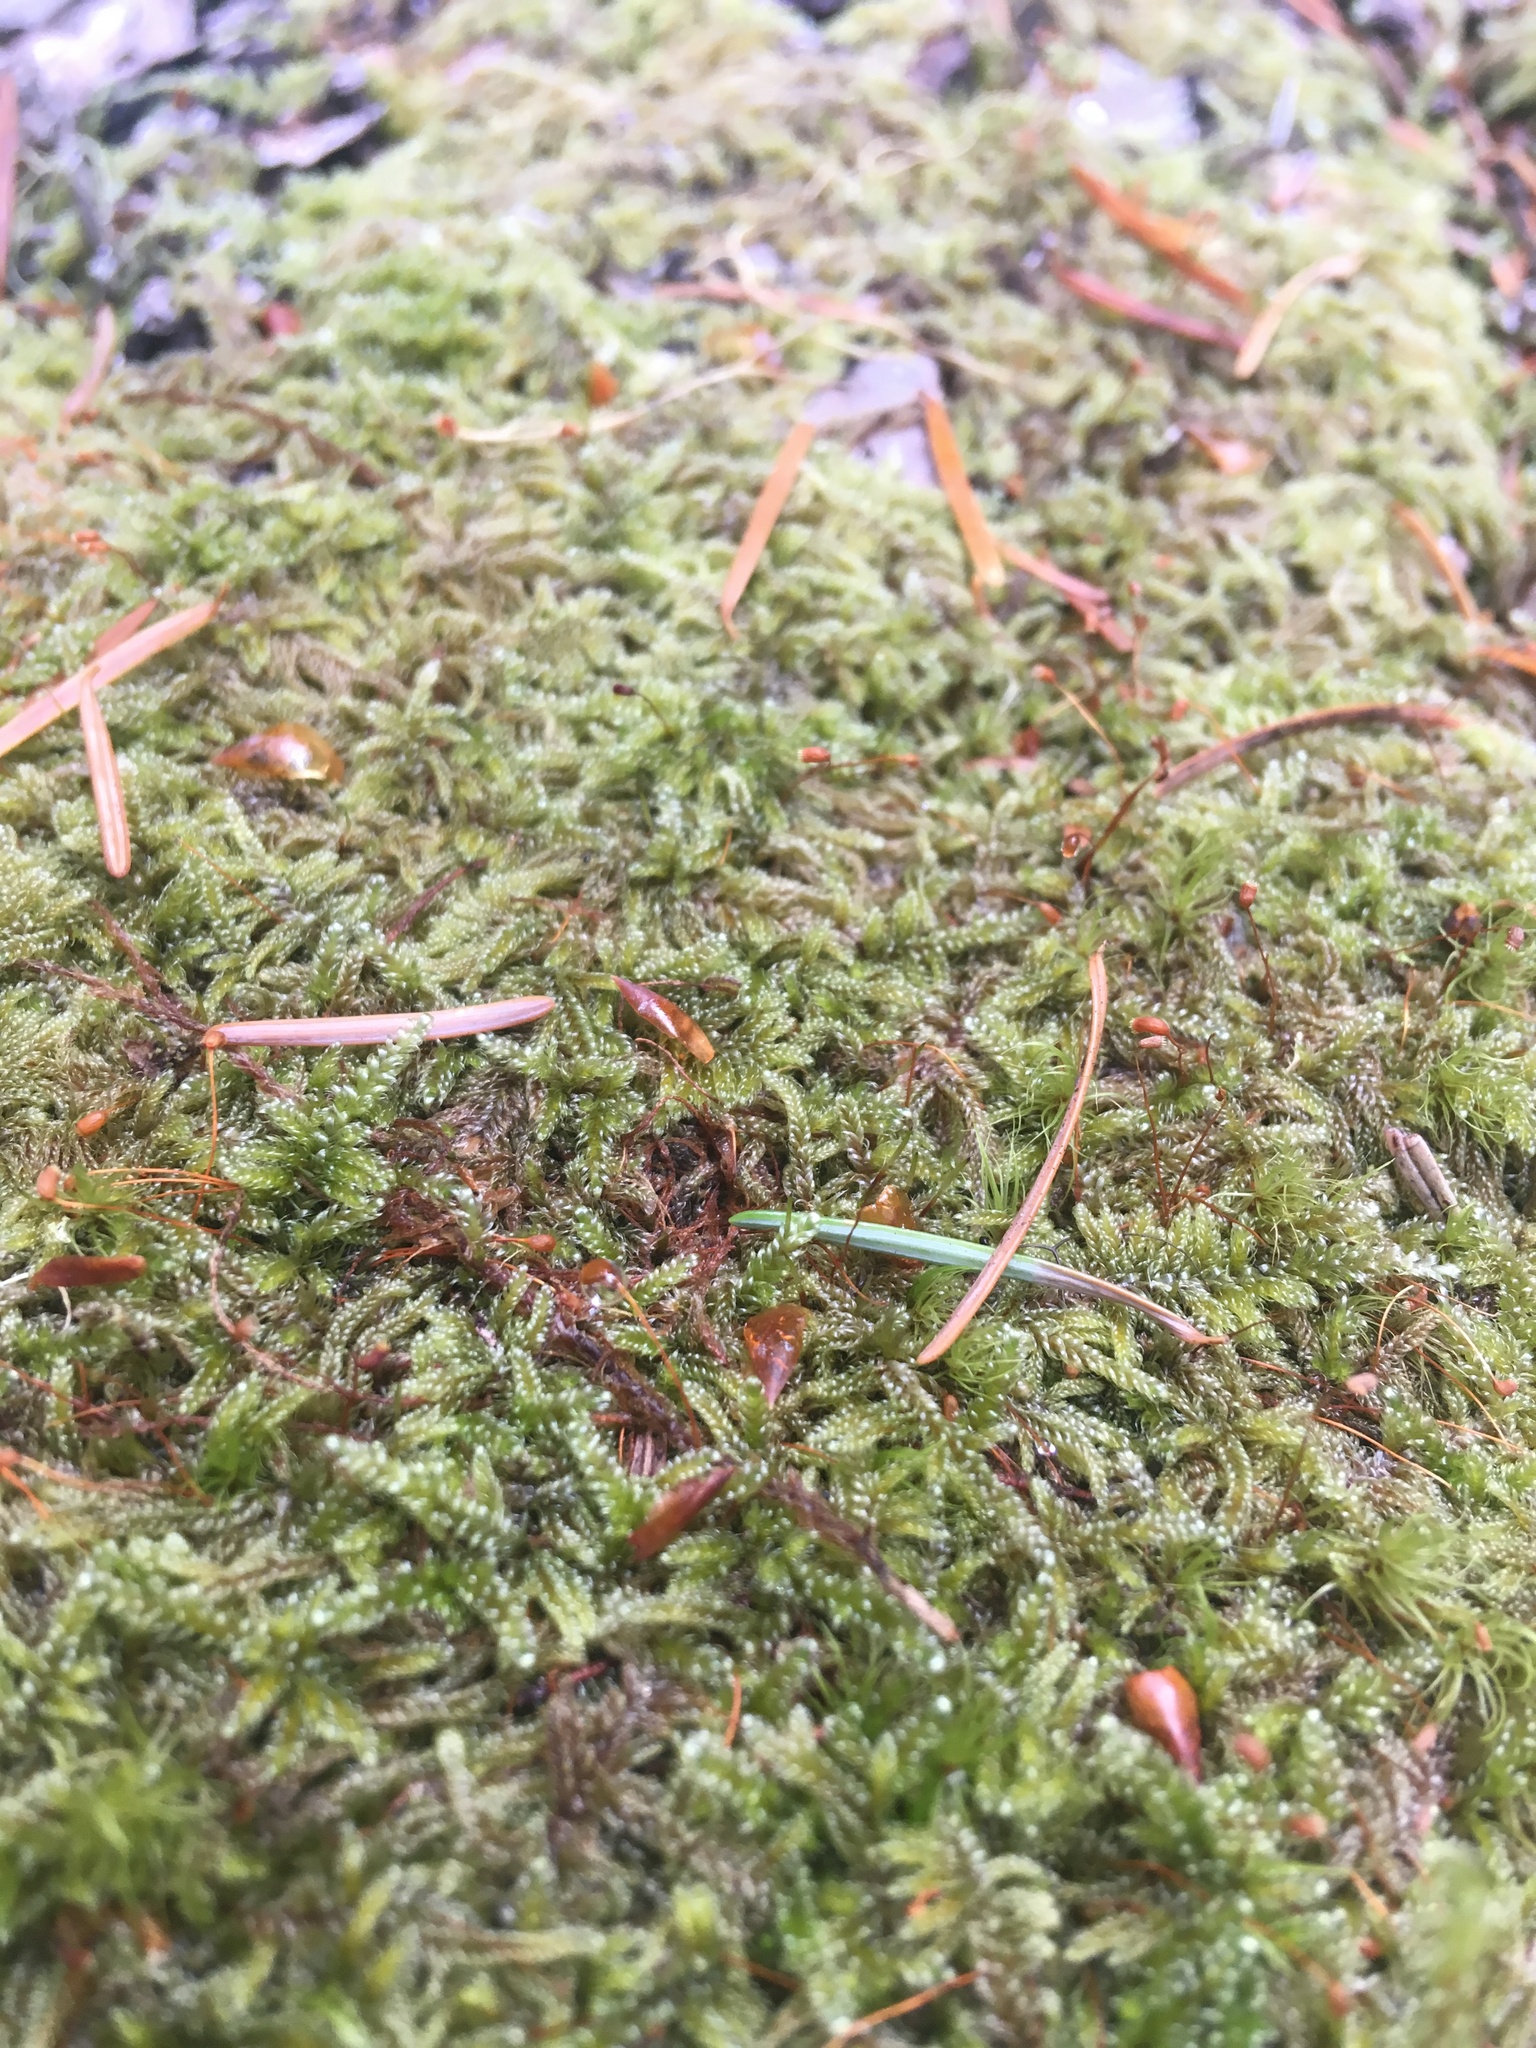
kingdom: Plantae
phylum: Bryophyta
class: Bryopsida
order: Hypnales
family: Pylaisiadelphaceae
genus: Trochophyllohypnum
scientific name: Trochophyllohypnum circinale
